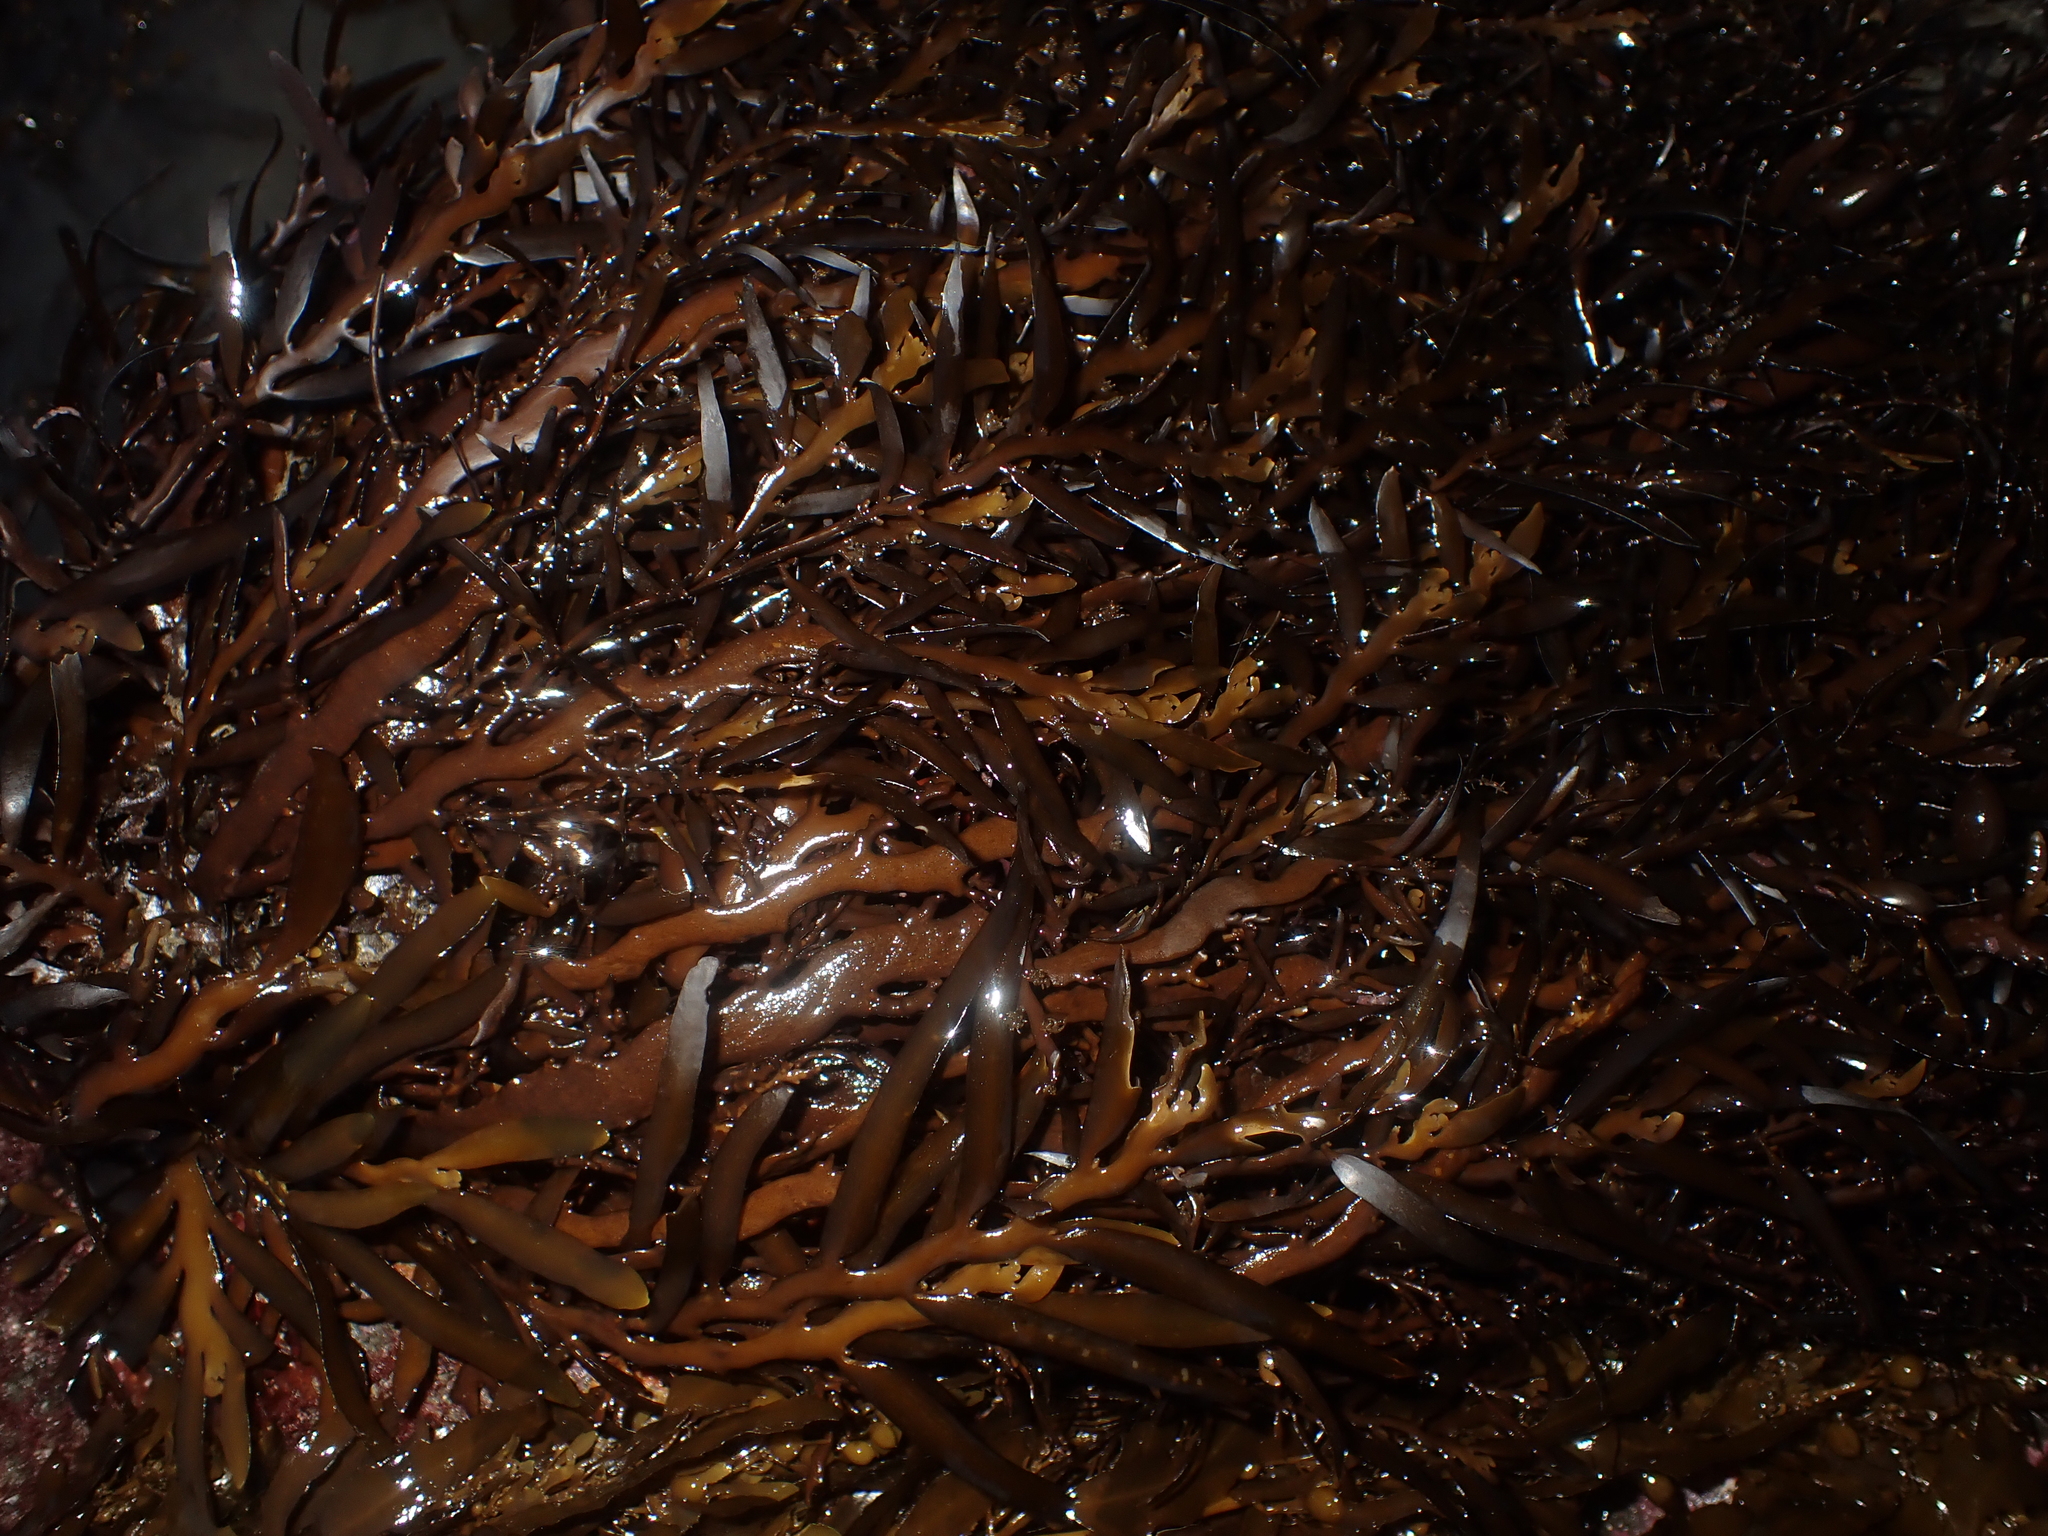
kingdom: Chromista
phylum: Ochrophyta
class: Phaeophyceae
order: Fucales
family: Sargassaceae
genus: Carpophyllum
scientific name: Carpophyllum maschalocarpum
